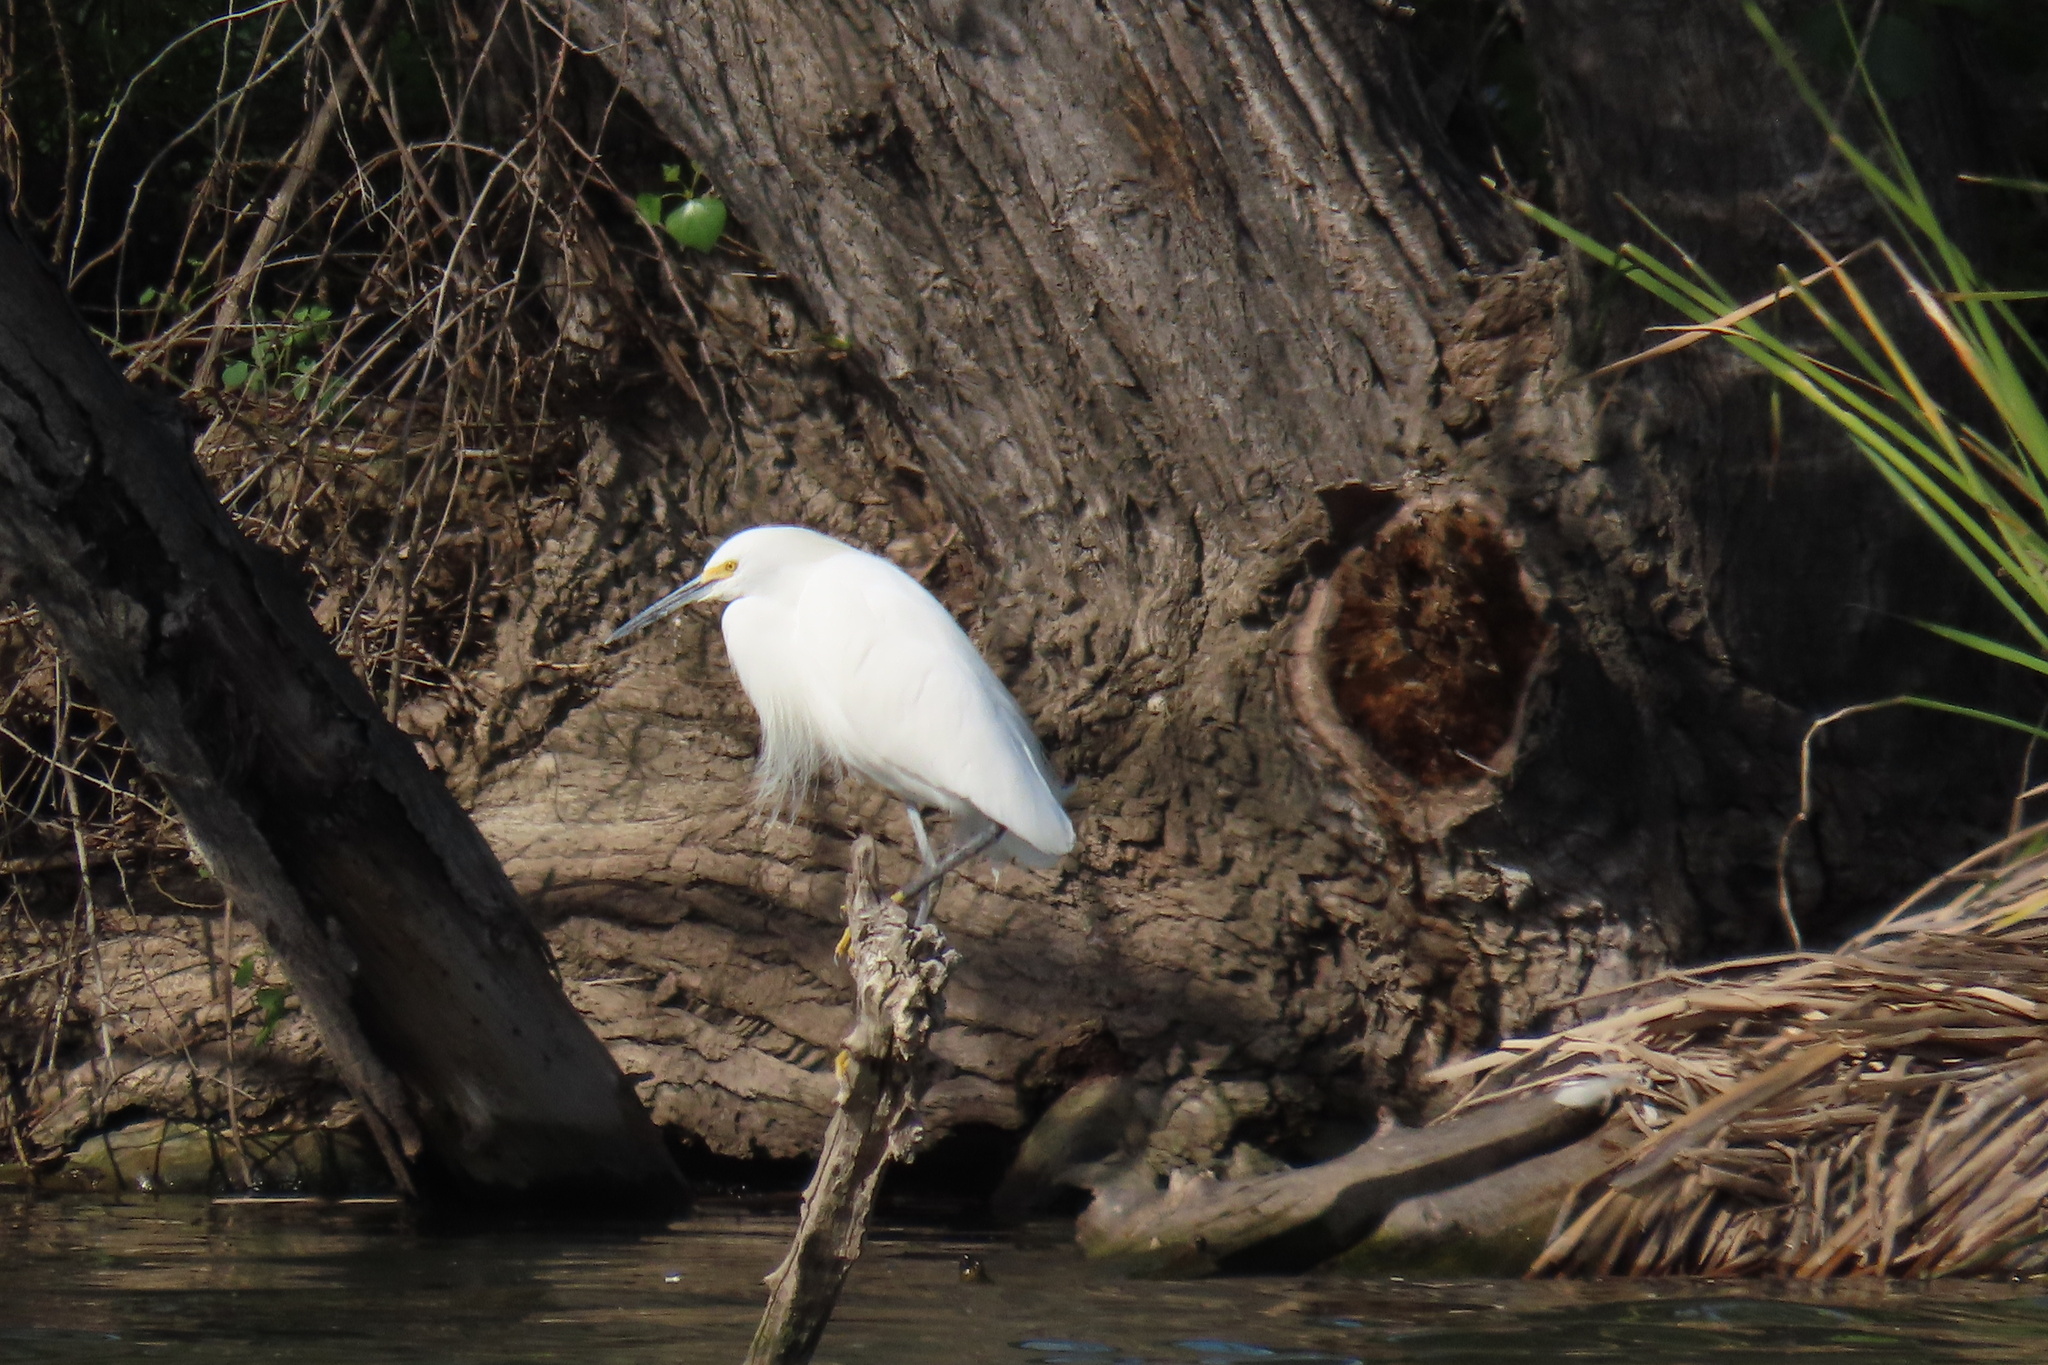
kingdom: Animalia
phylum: Chordata
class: Aves
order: Pelecaniformes
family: Ardeidae
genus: Egretta
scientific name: Egretta thula
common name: Snowy egret
